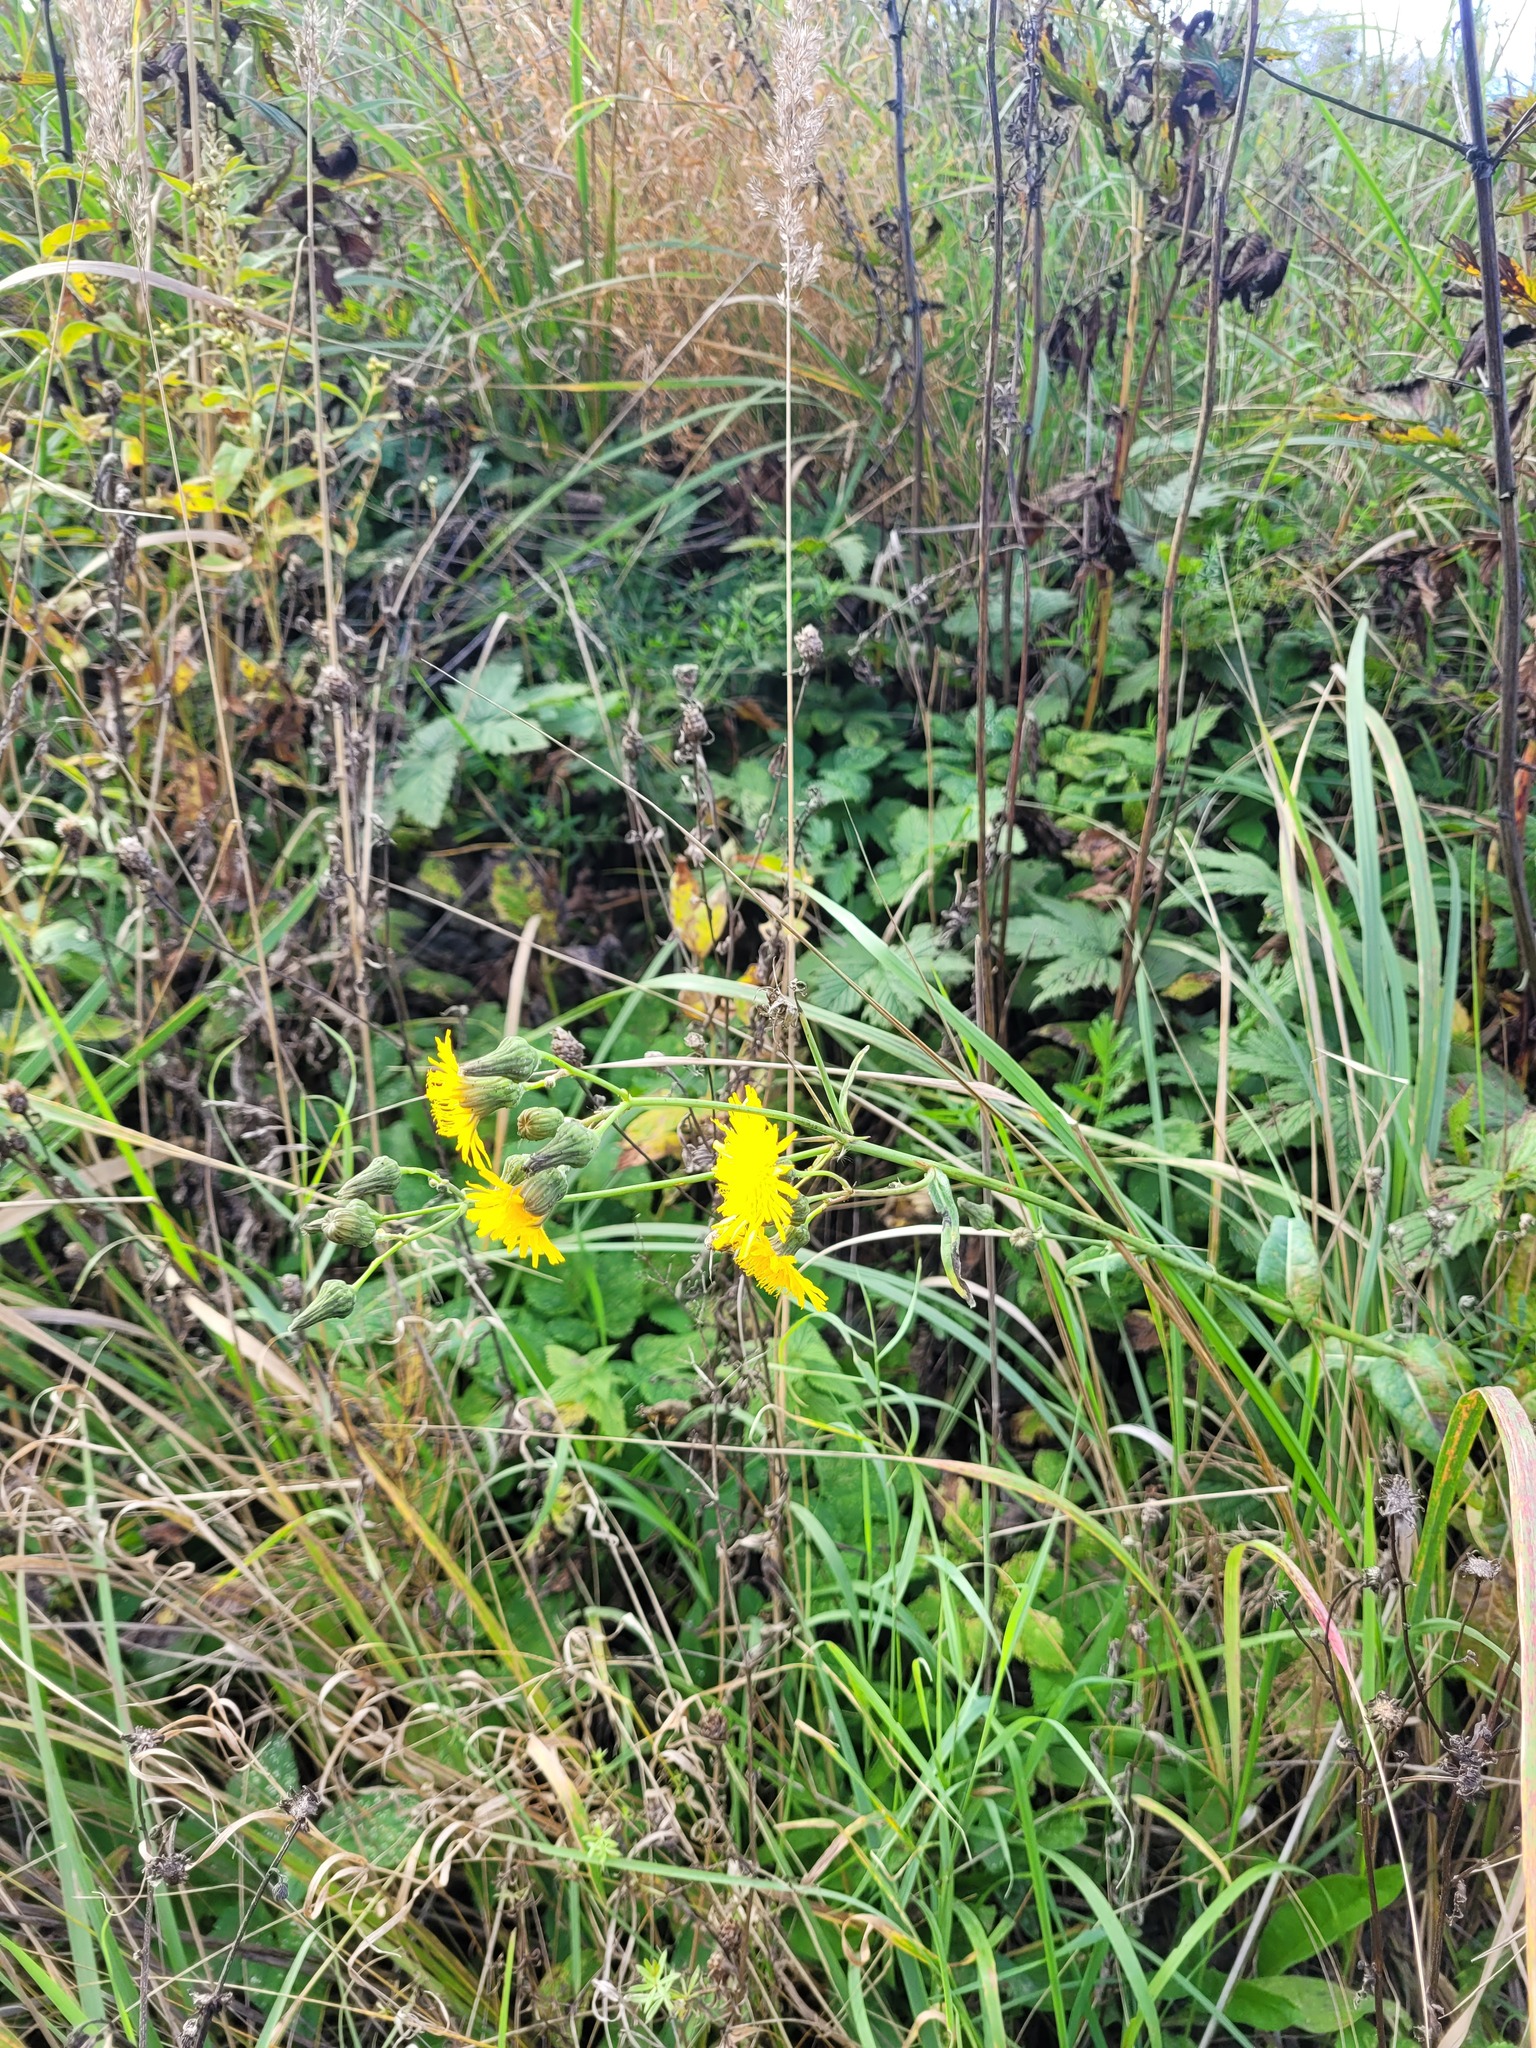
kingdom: Plantae
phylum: Tracheophyta
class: Magnoliopsida
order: Asterales
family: Asteraceae
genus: Sonchus
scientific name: Sonchus arvensis
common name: Perennial sow-thistle
